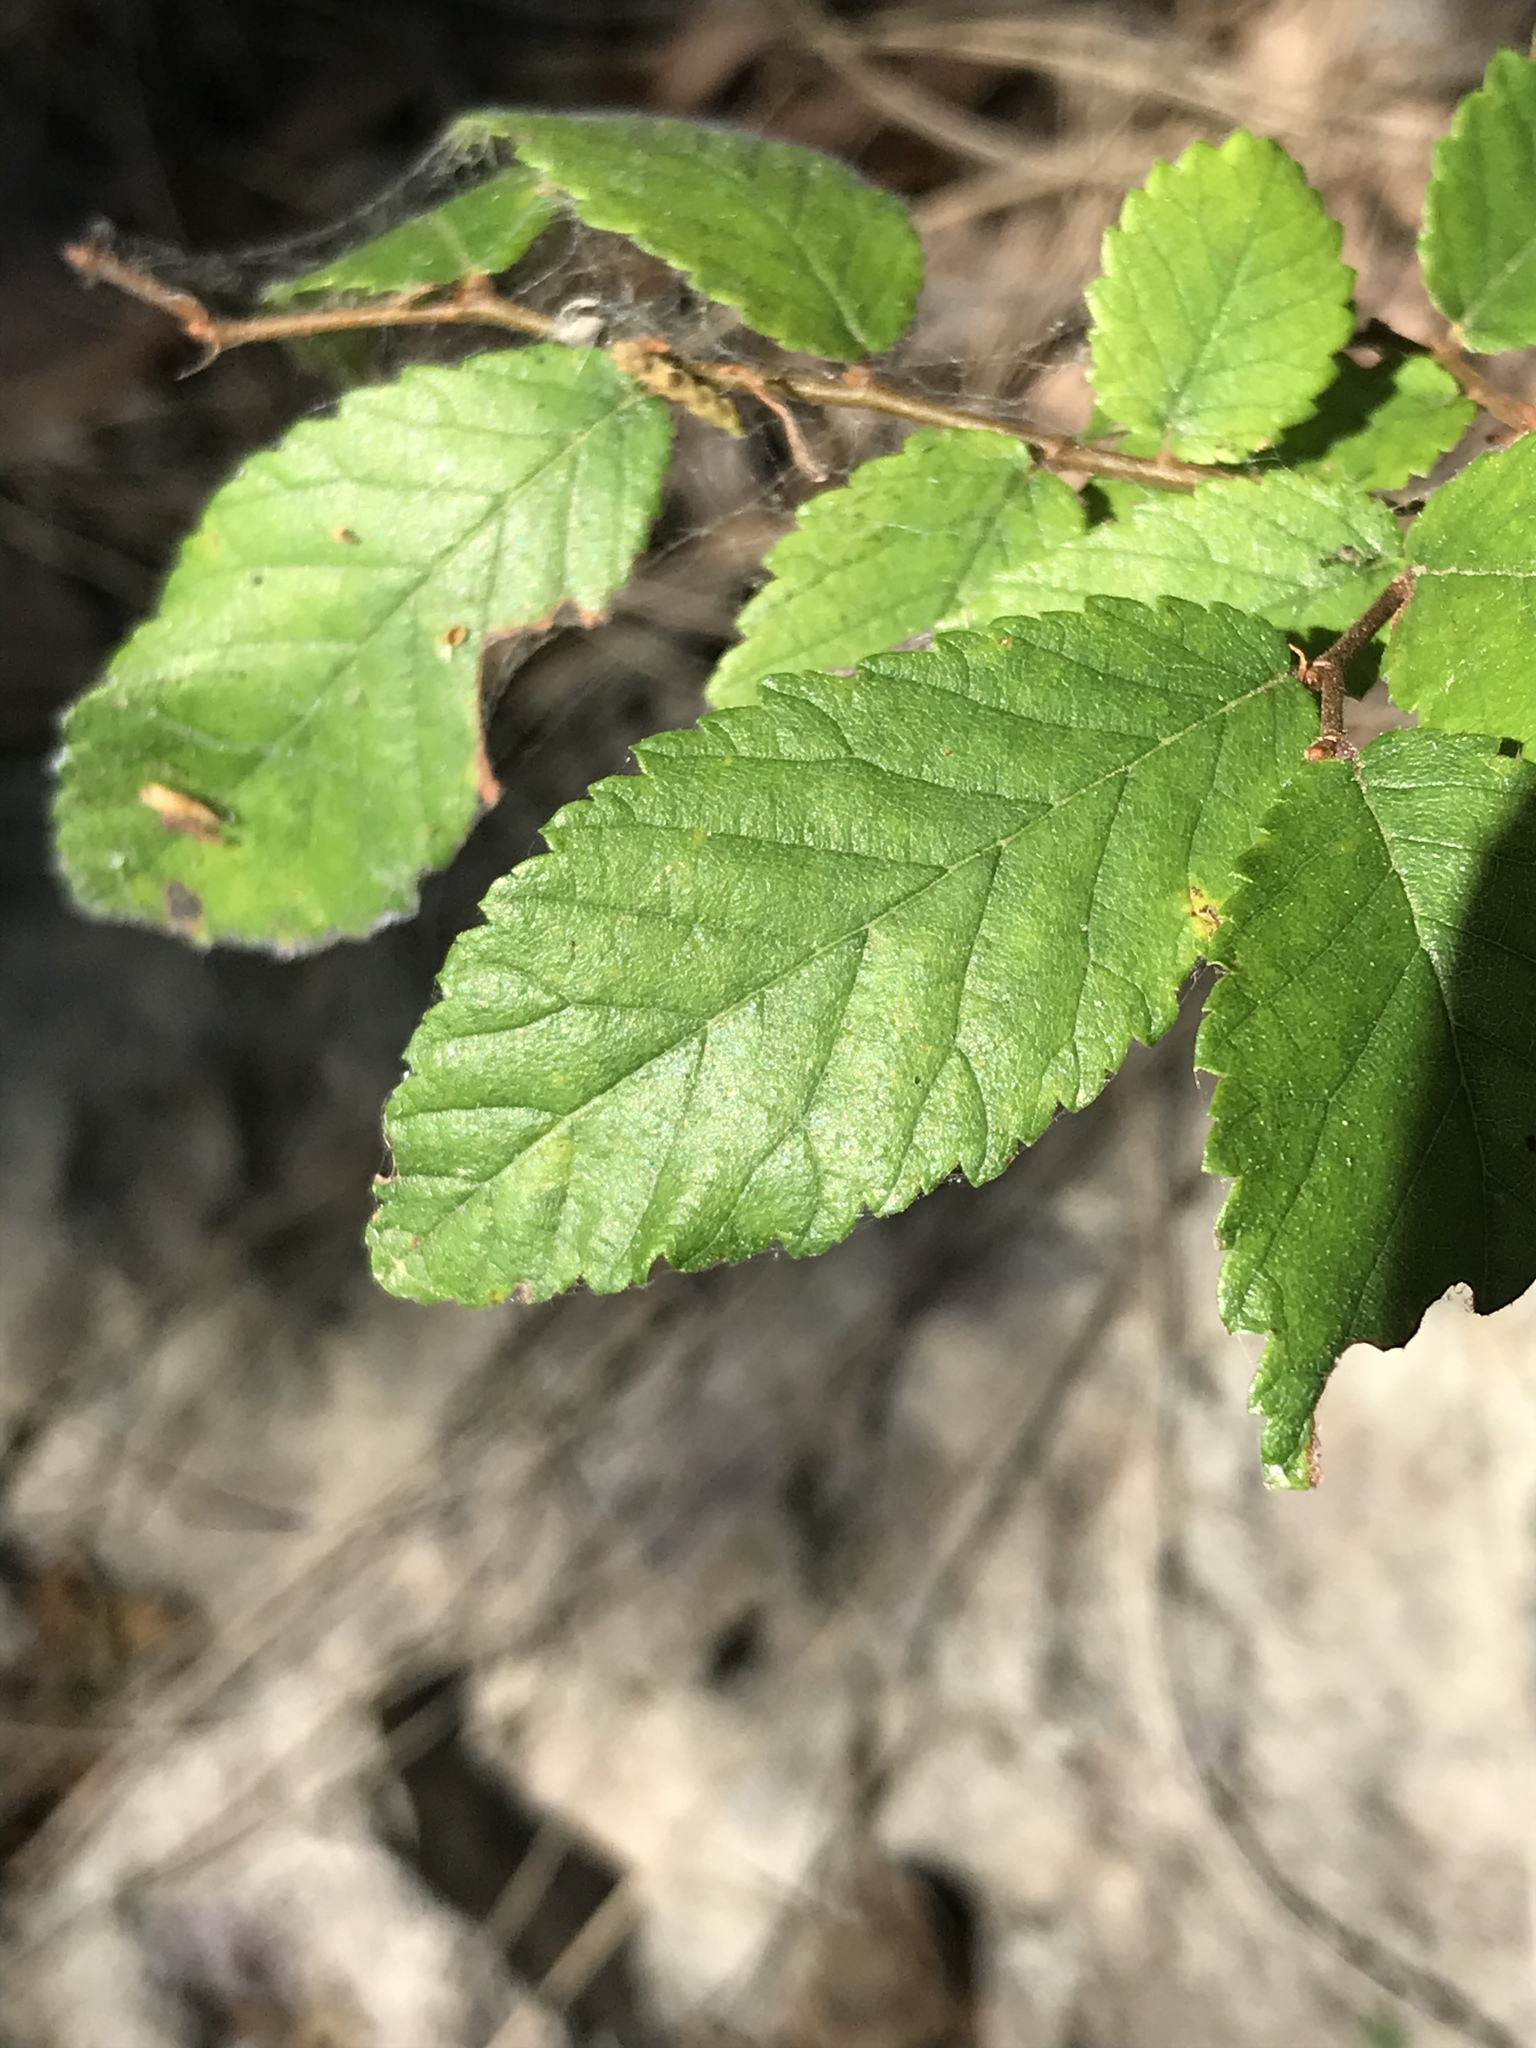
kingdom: Plantae
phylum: Tracheophyta
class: Magnoliopsida
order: Rosales
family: Ulmaceae
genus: Ulmus
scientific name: Ulmus crassifolia
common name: Basket elm
